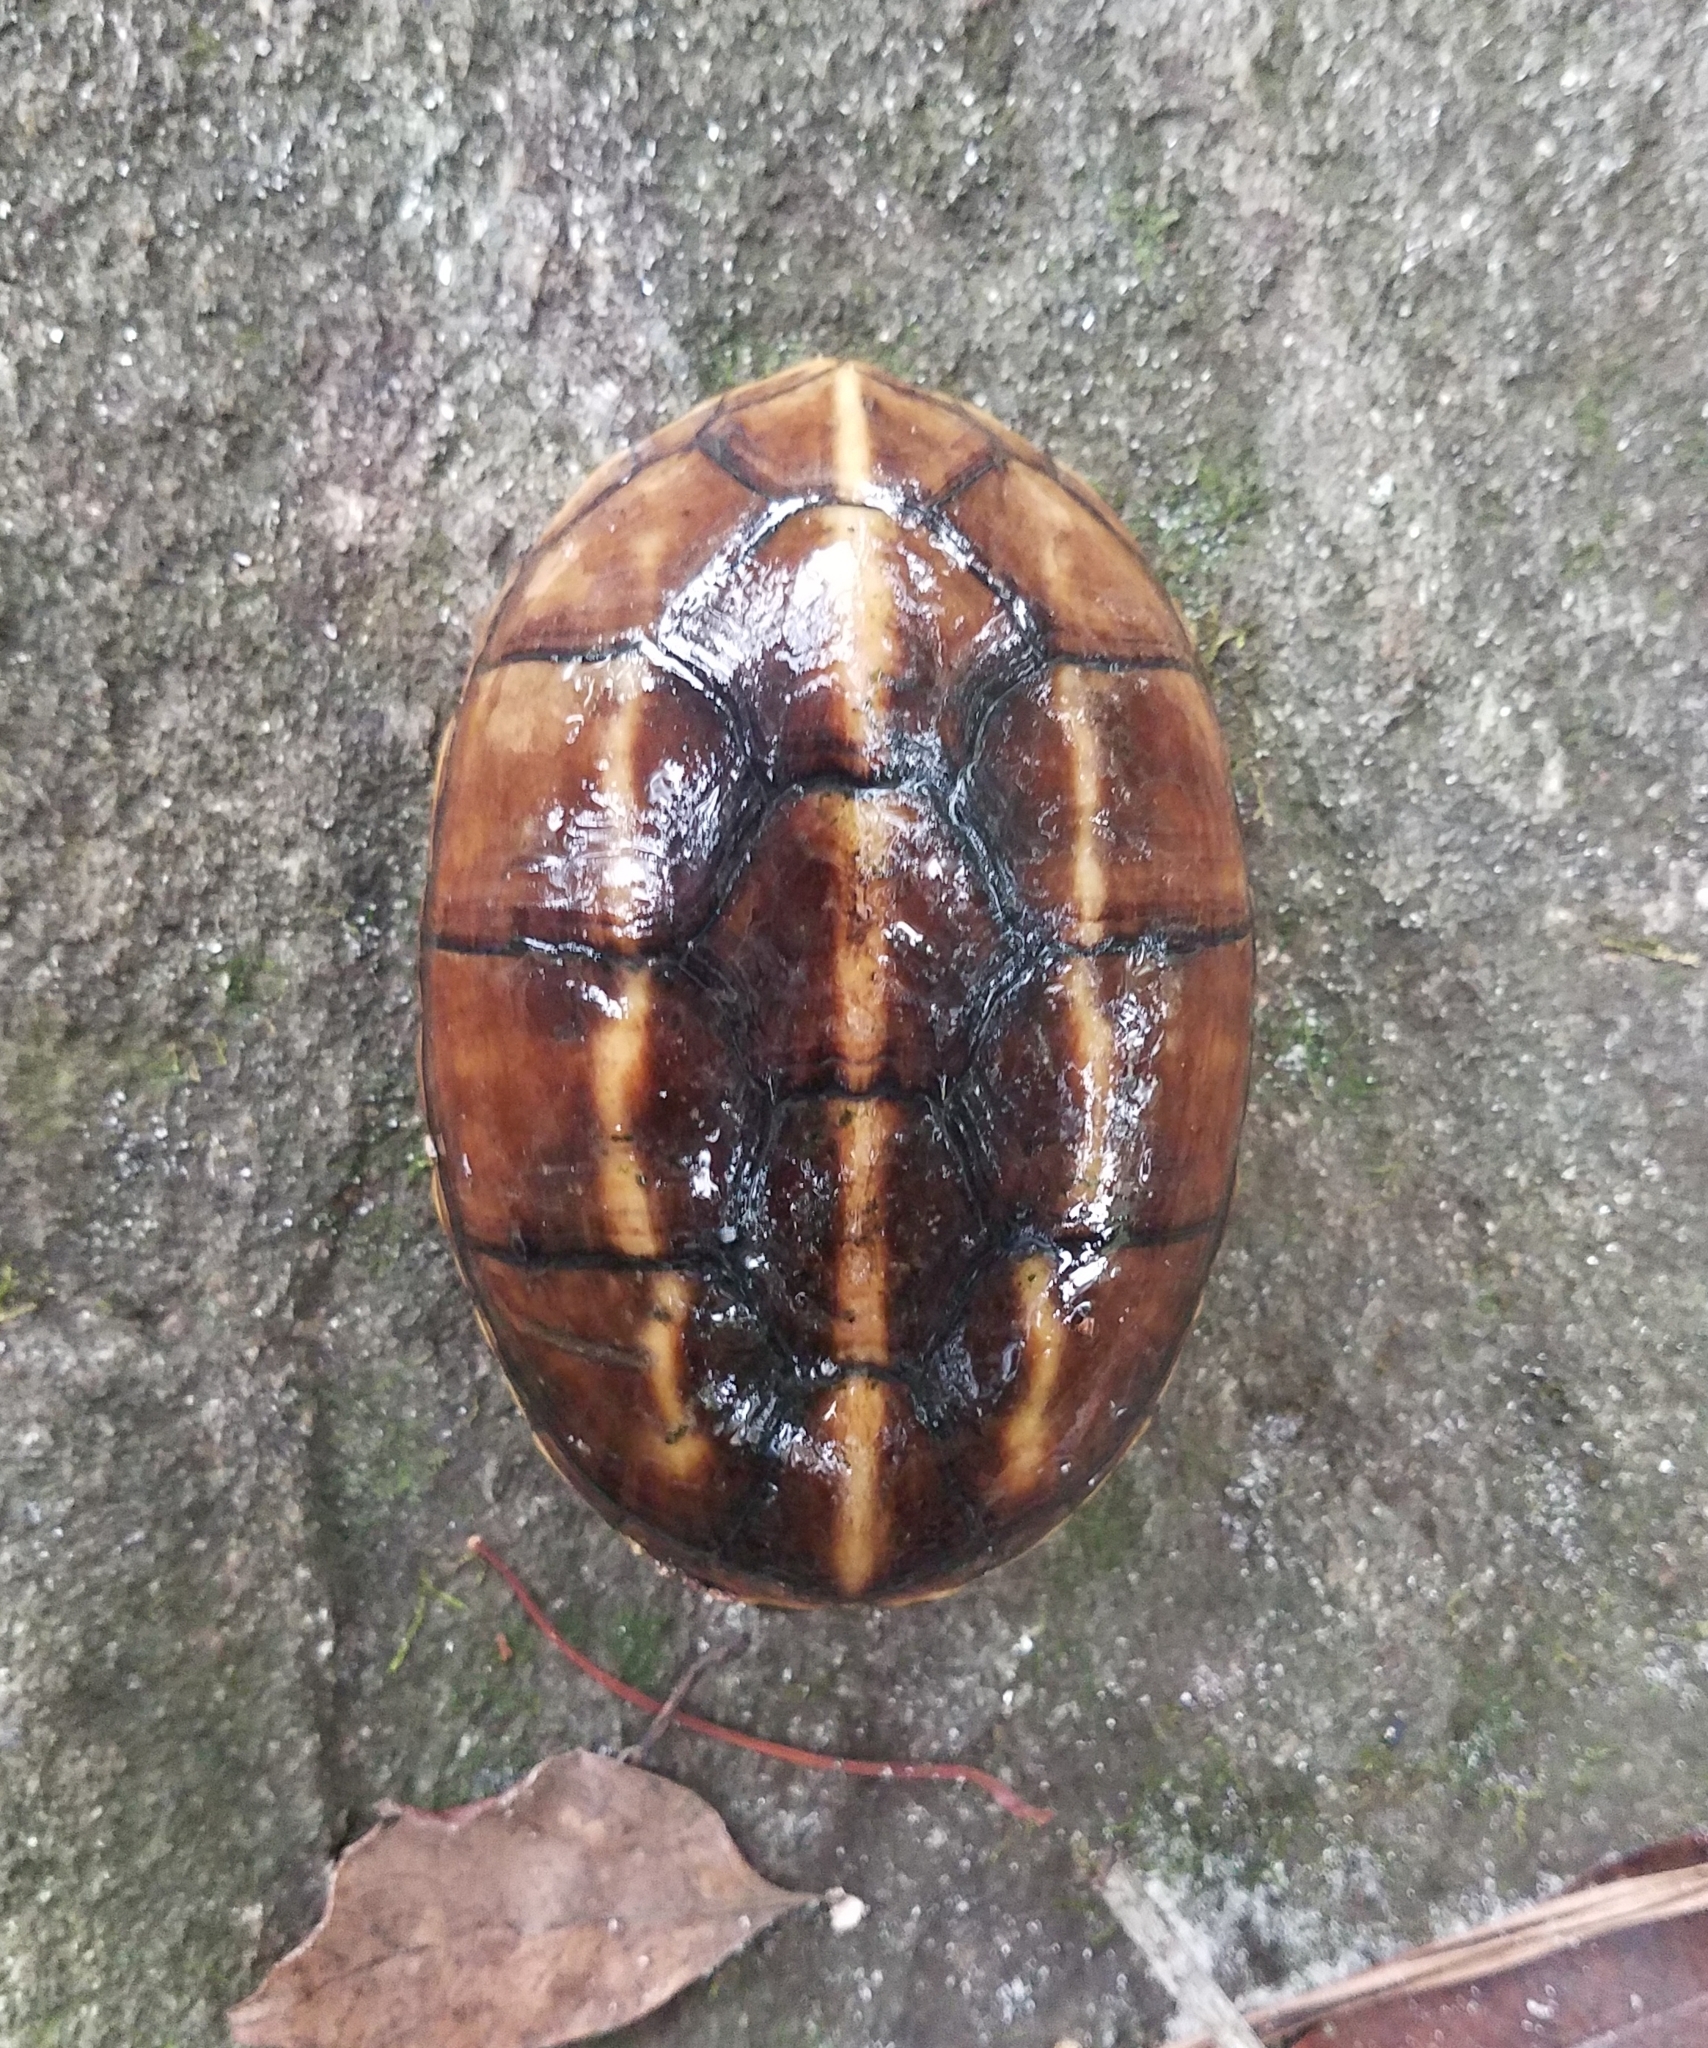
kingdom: Animalia
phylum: Chordata
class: Testudines
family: Kinosternidae
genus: Kinosternon
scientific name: Kinosternon baurii
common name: Striped mud turtle
